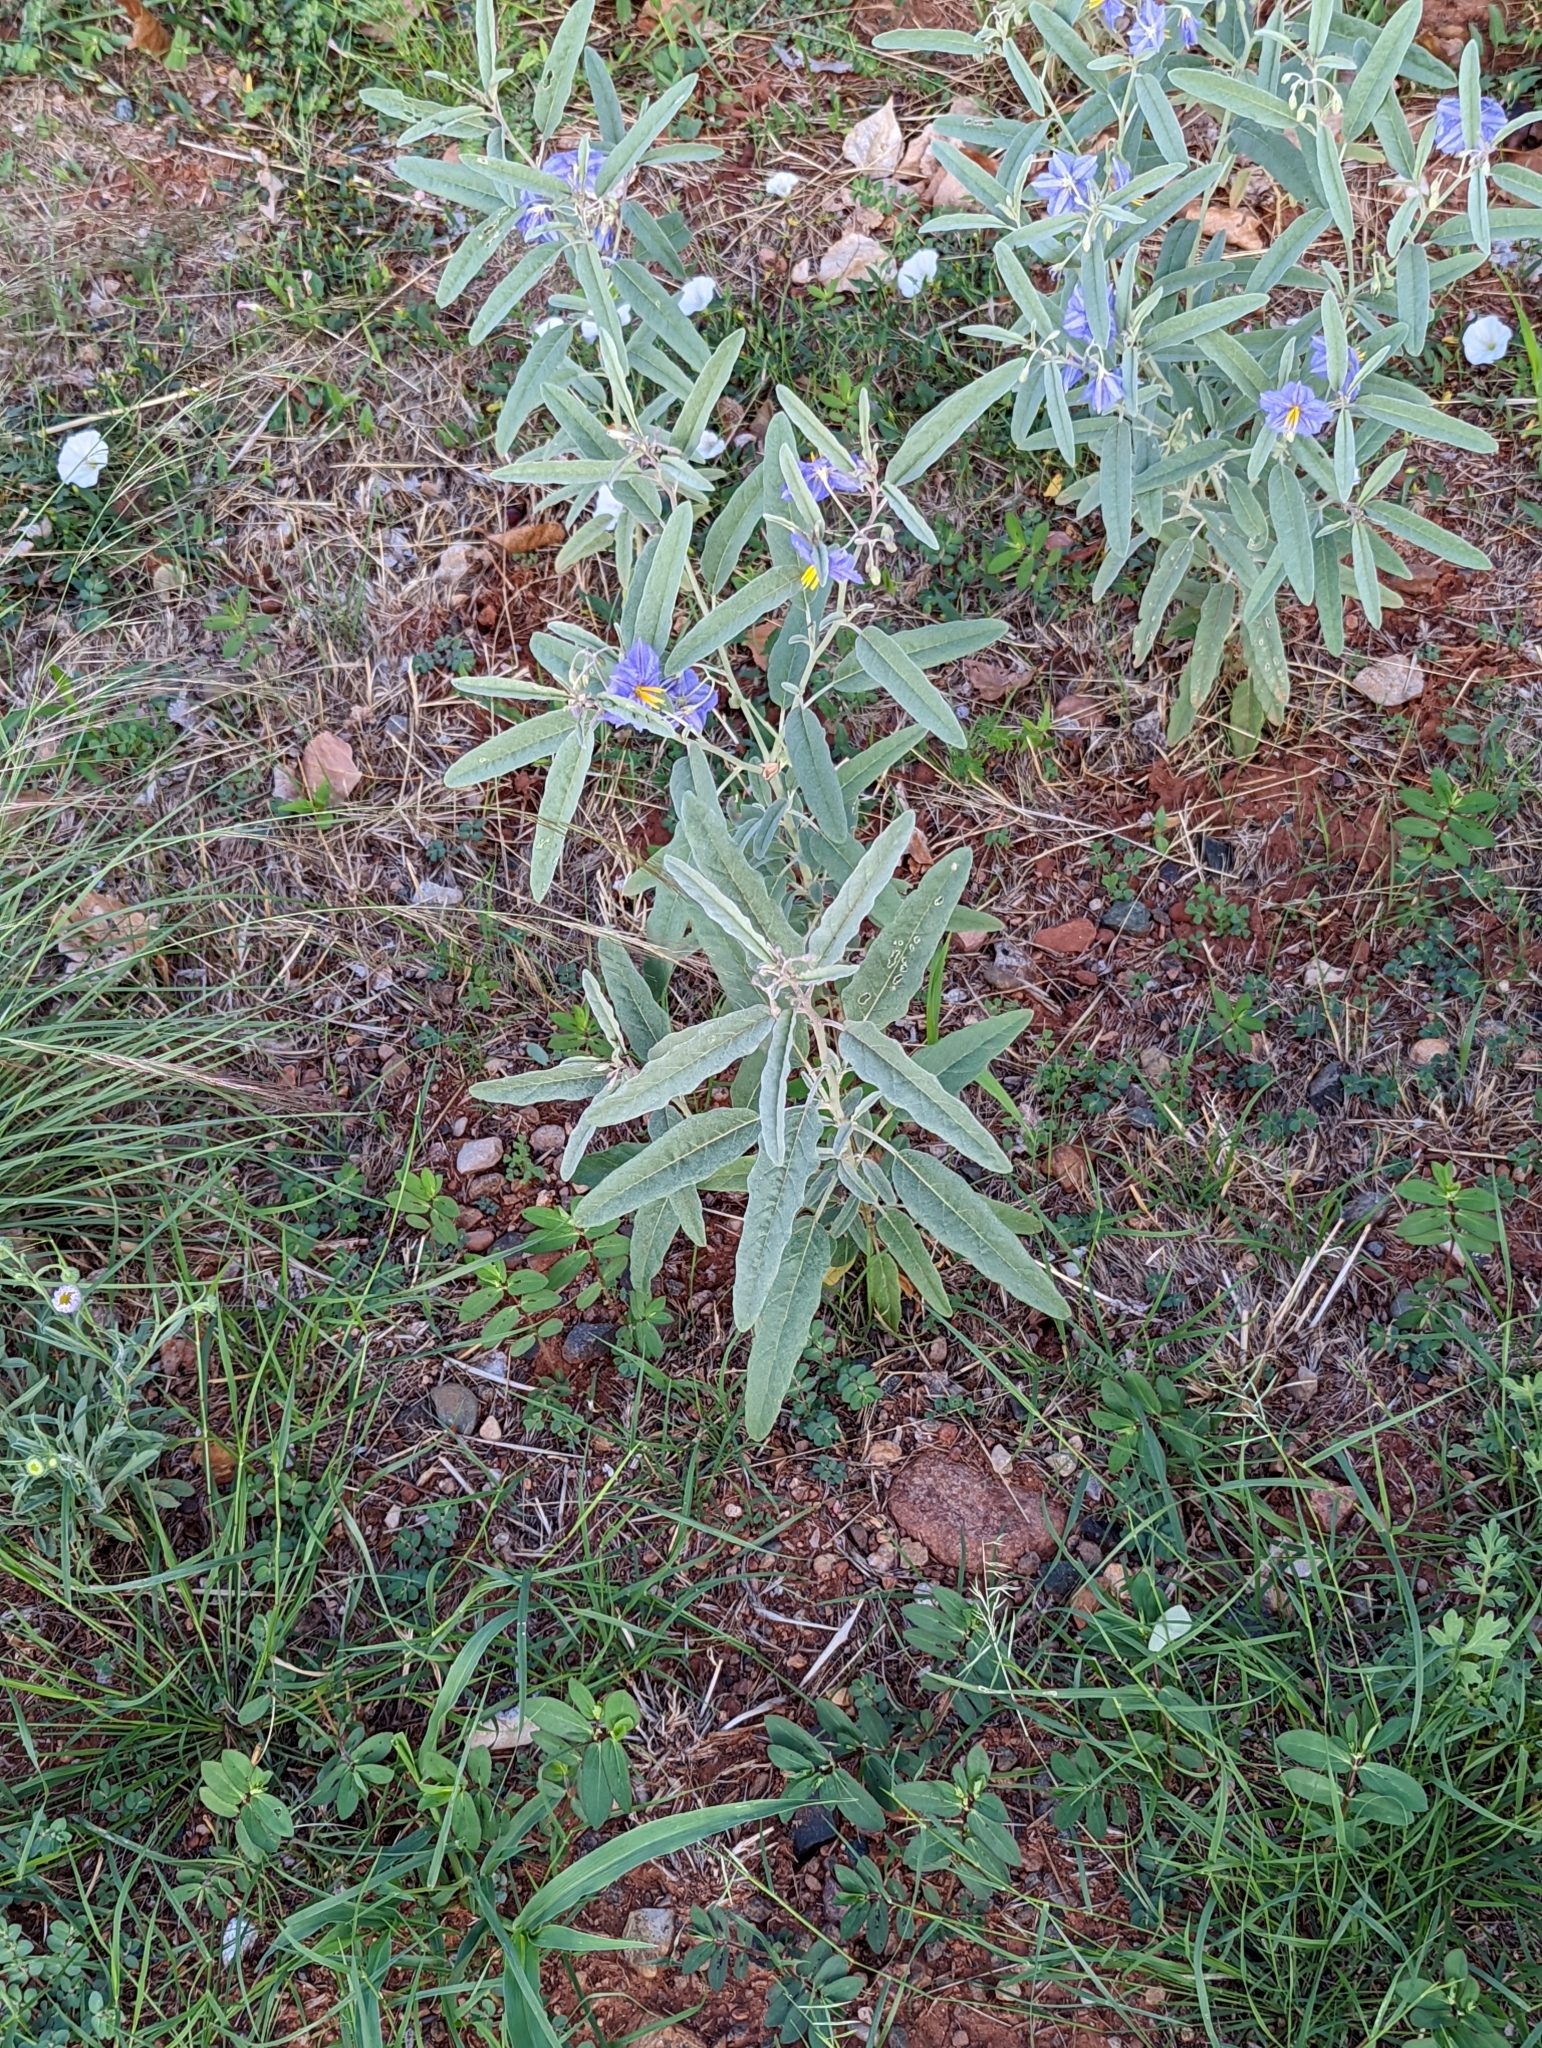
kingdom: Plantae
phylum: Tracheophyta
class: Magnoliopsida
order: Solanales
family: Solanaceae
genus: Solanum
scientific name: Solanum elaeagnifolium
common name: Silverleaf nightshade
